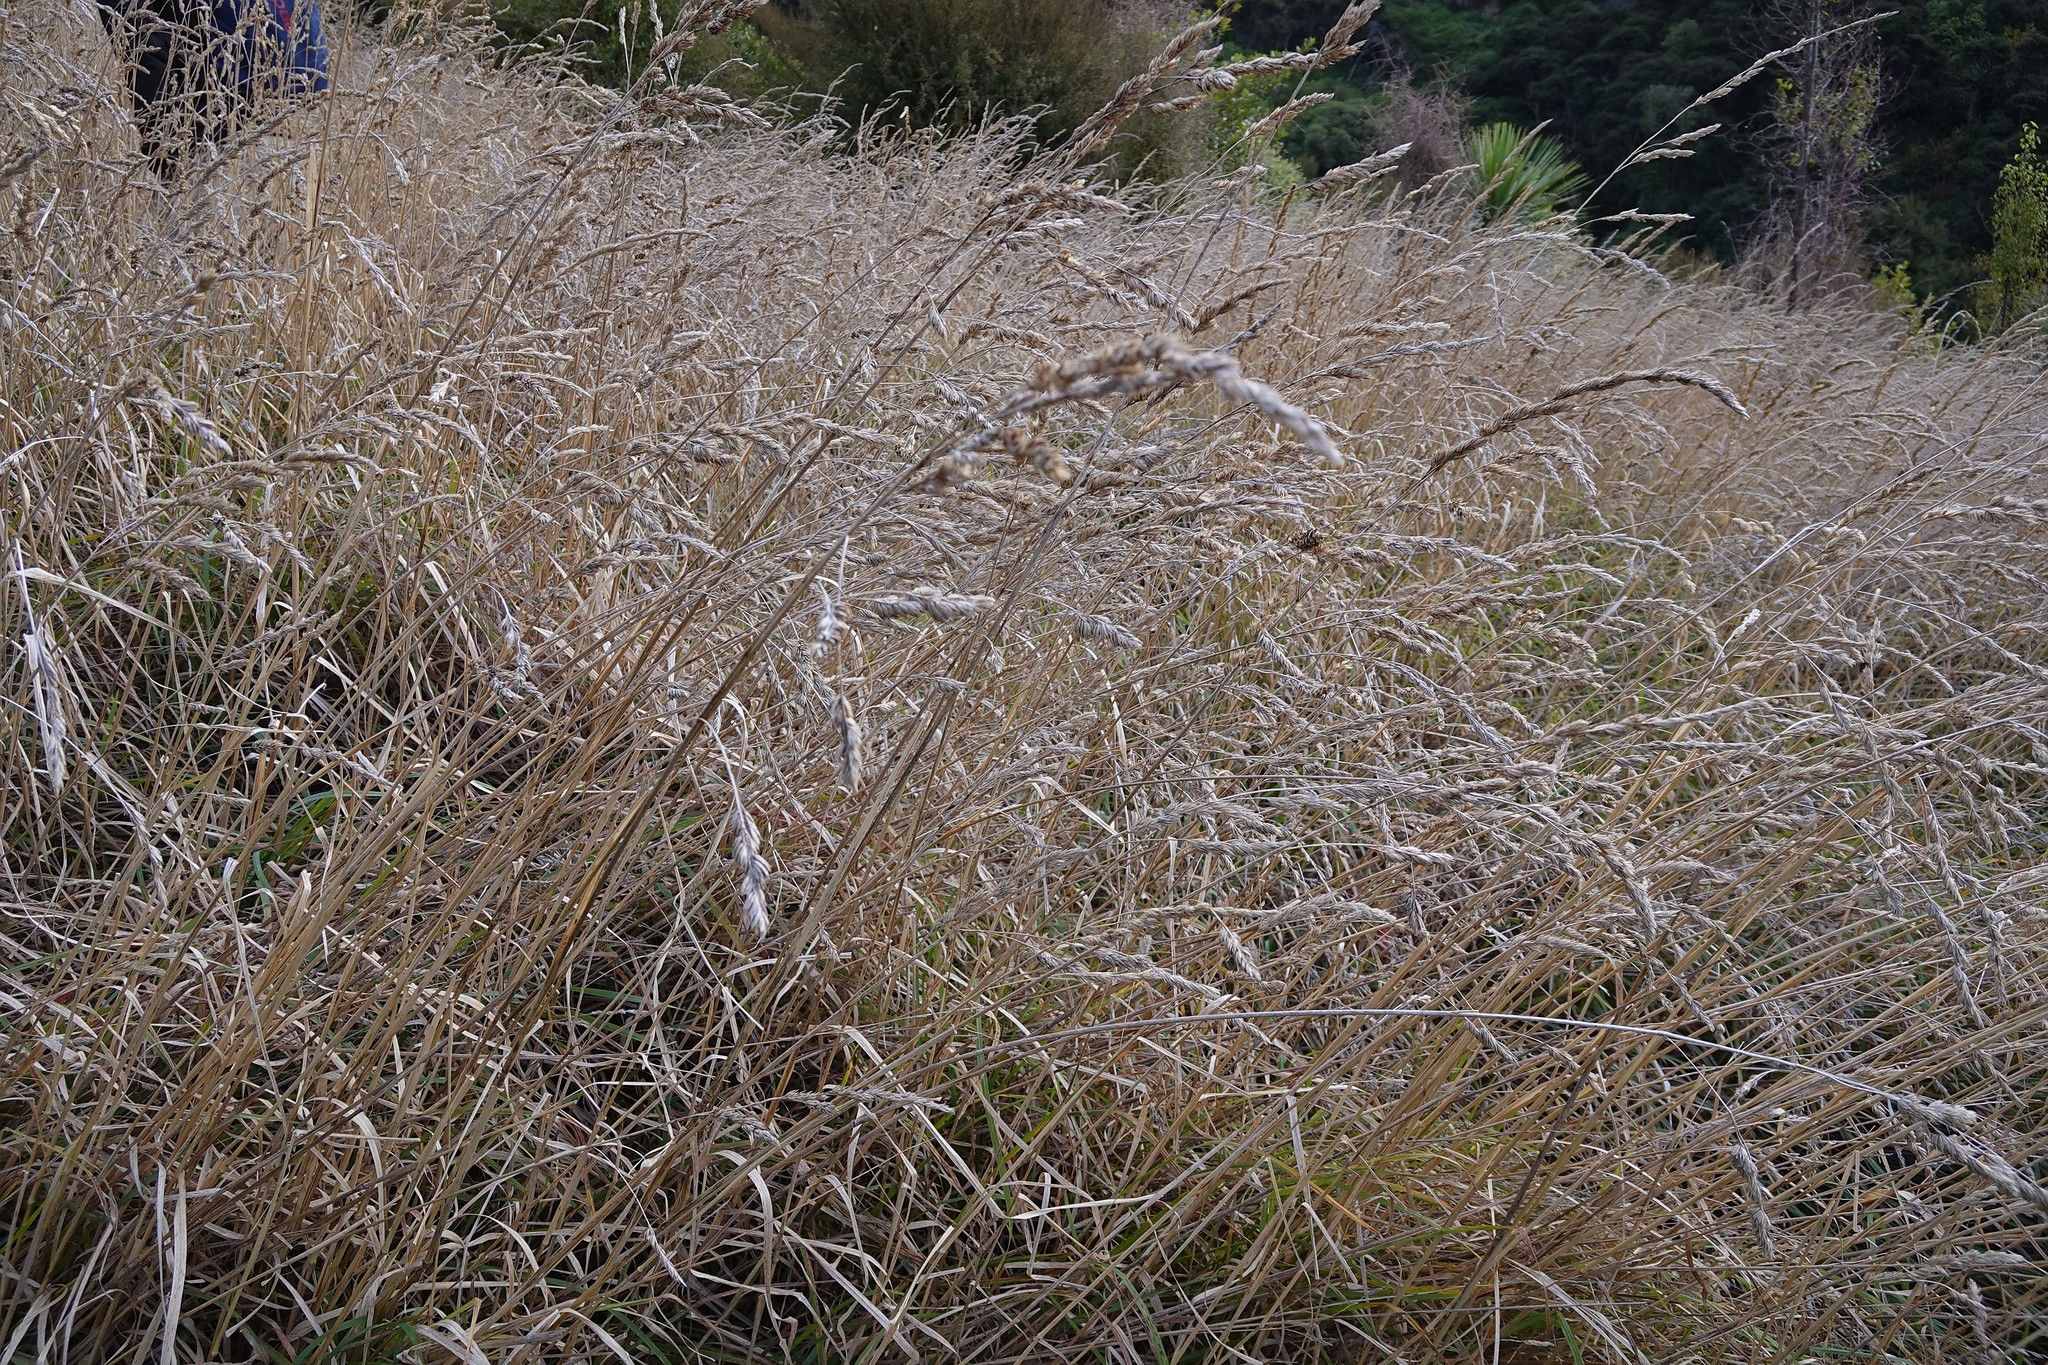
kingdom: Plantae
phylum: Tracheophyta
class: Liliopsida
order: Poales
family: Poaceae
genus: Dactylis
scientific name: Dactylis glomerata
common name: Orchardgrass
